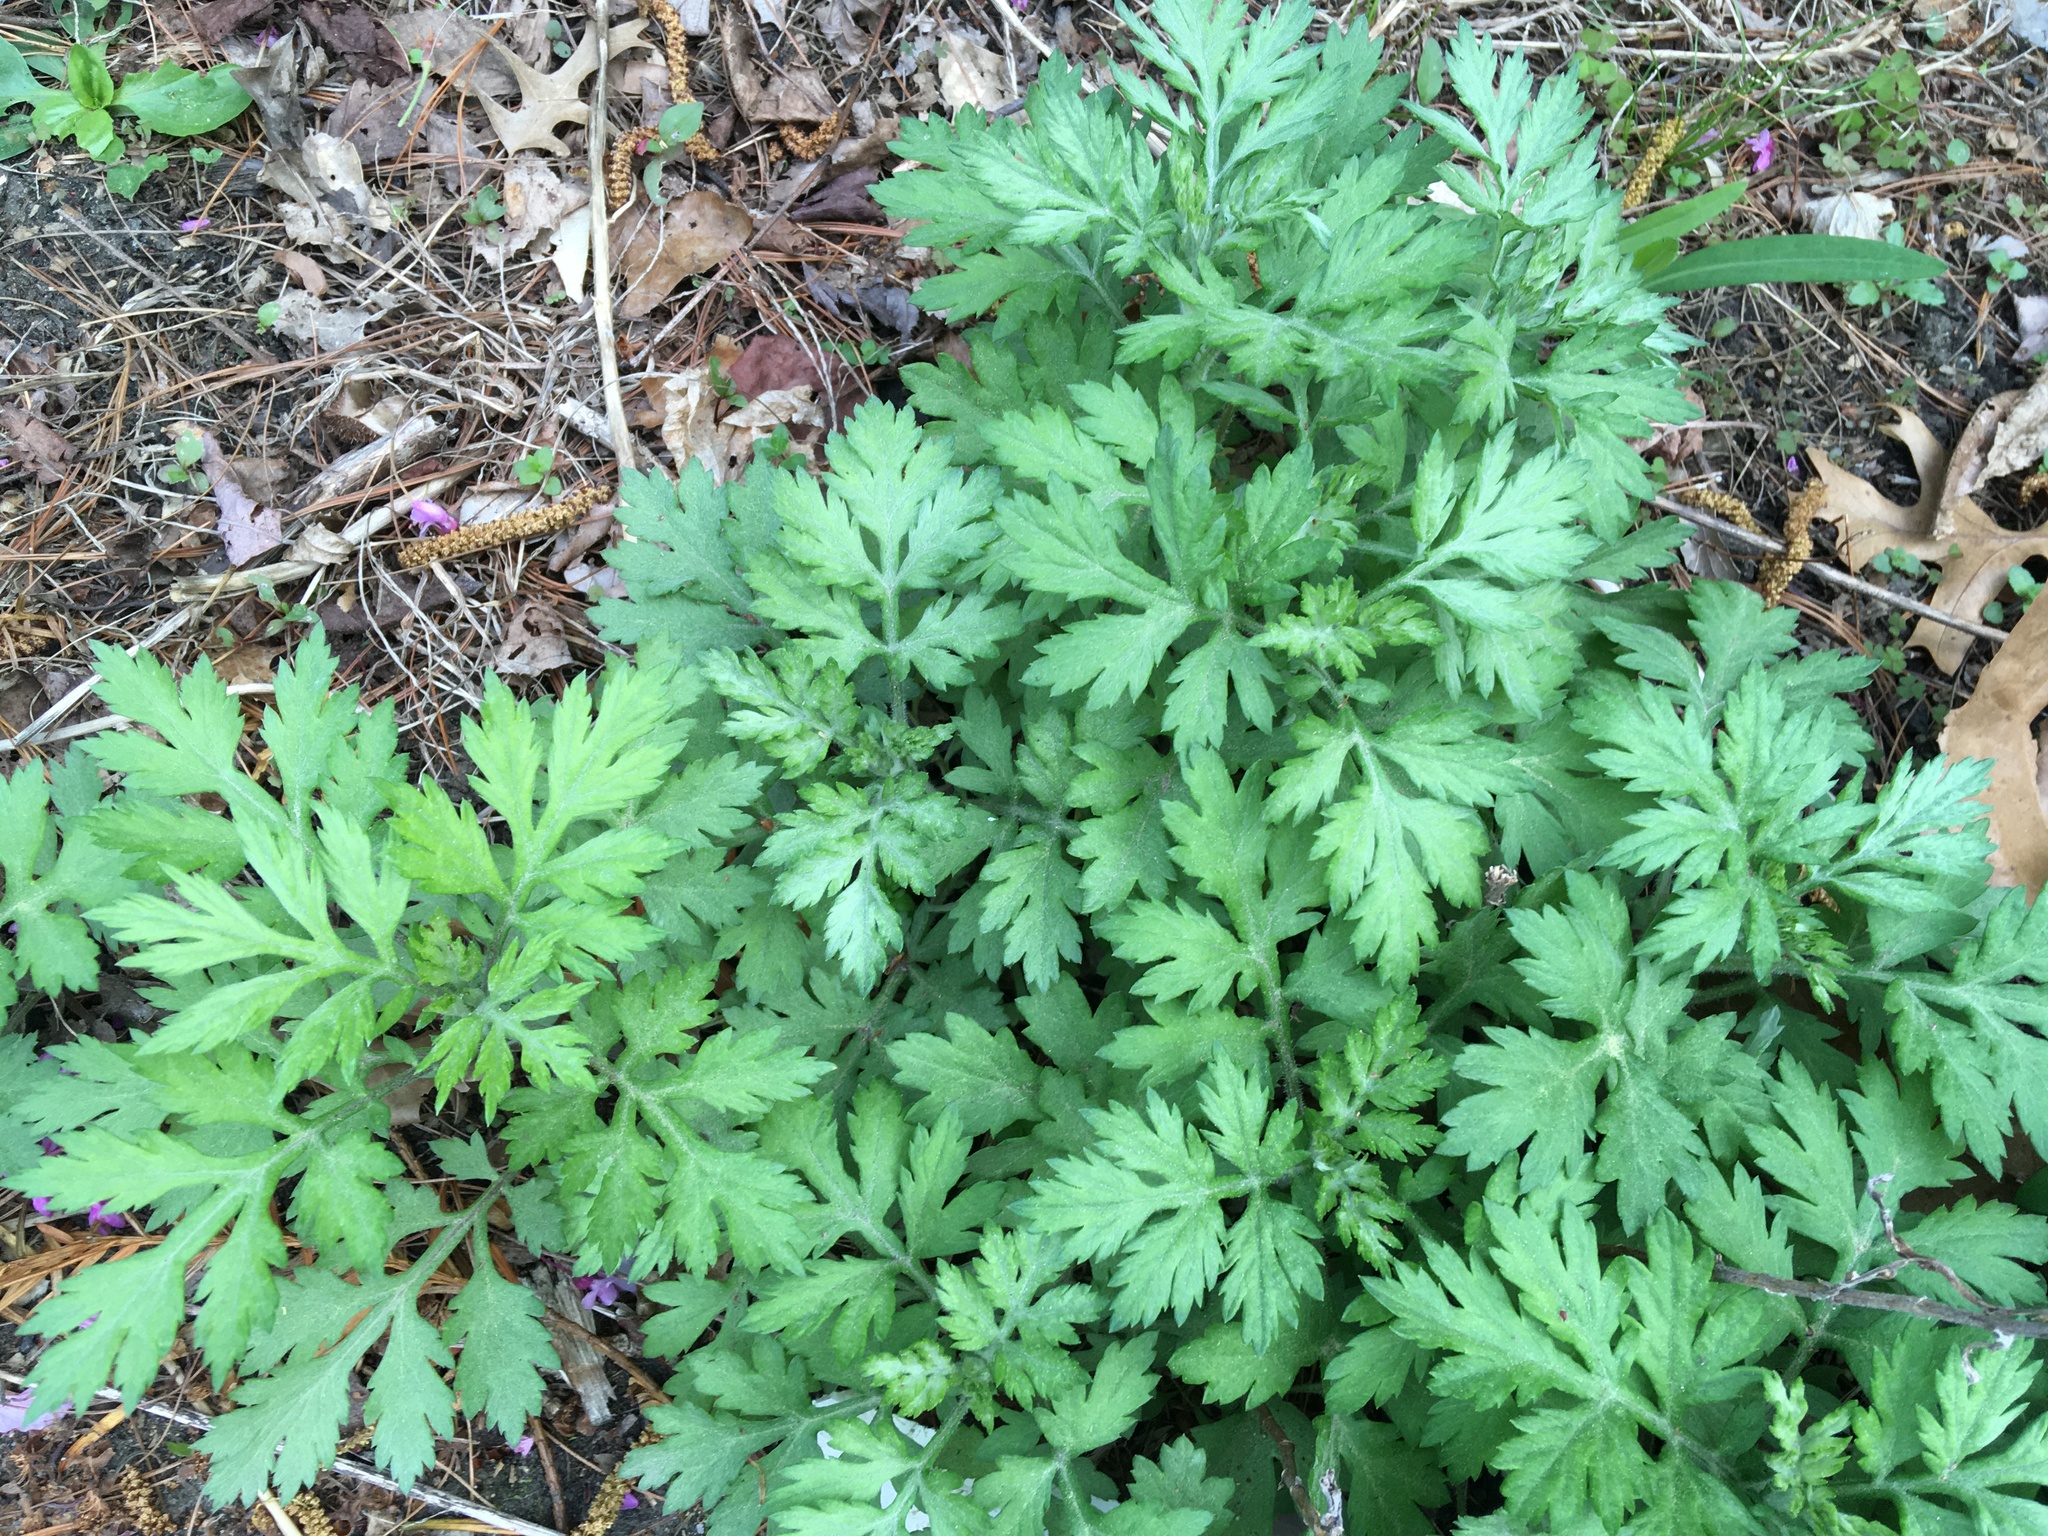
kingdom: Plantae
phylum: Tracheophyta
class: Magnoliopsida
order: Asterales
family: Asteraceae
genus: Artemisia
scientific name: Artemisia vulgaris
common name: Mugwort
